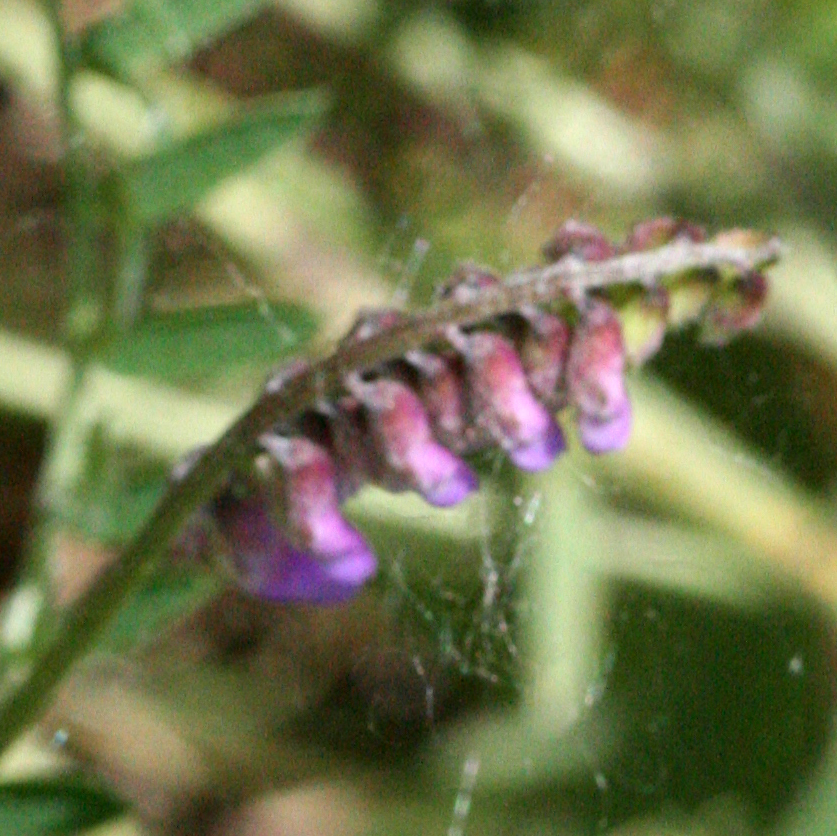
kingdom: Plantae
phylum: Tracheophyta
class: Magnoliopsida
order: Fabales
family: Fabaceae
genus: Vicia
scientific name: Vicia cracca
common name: Bird vetch
